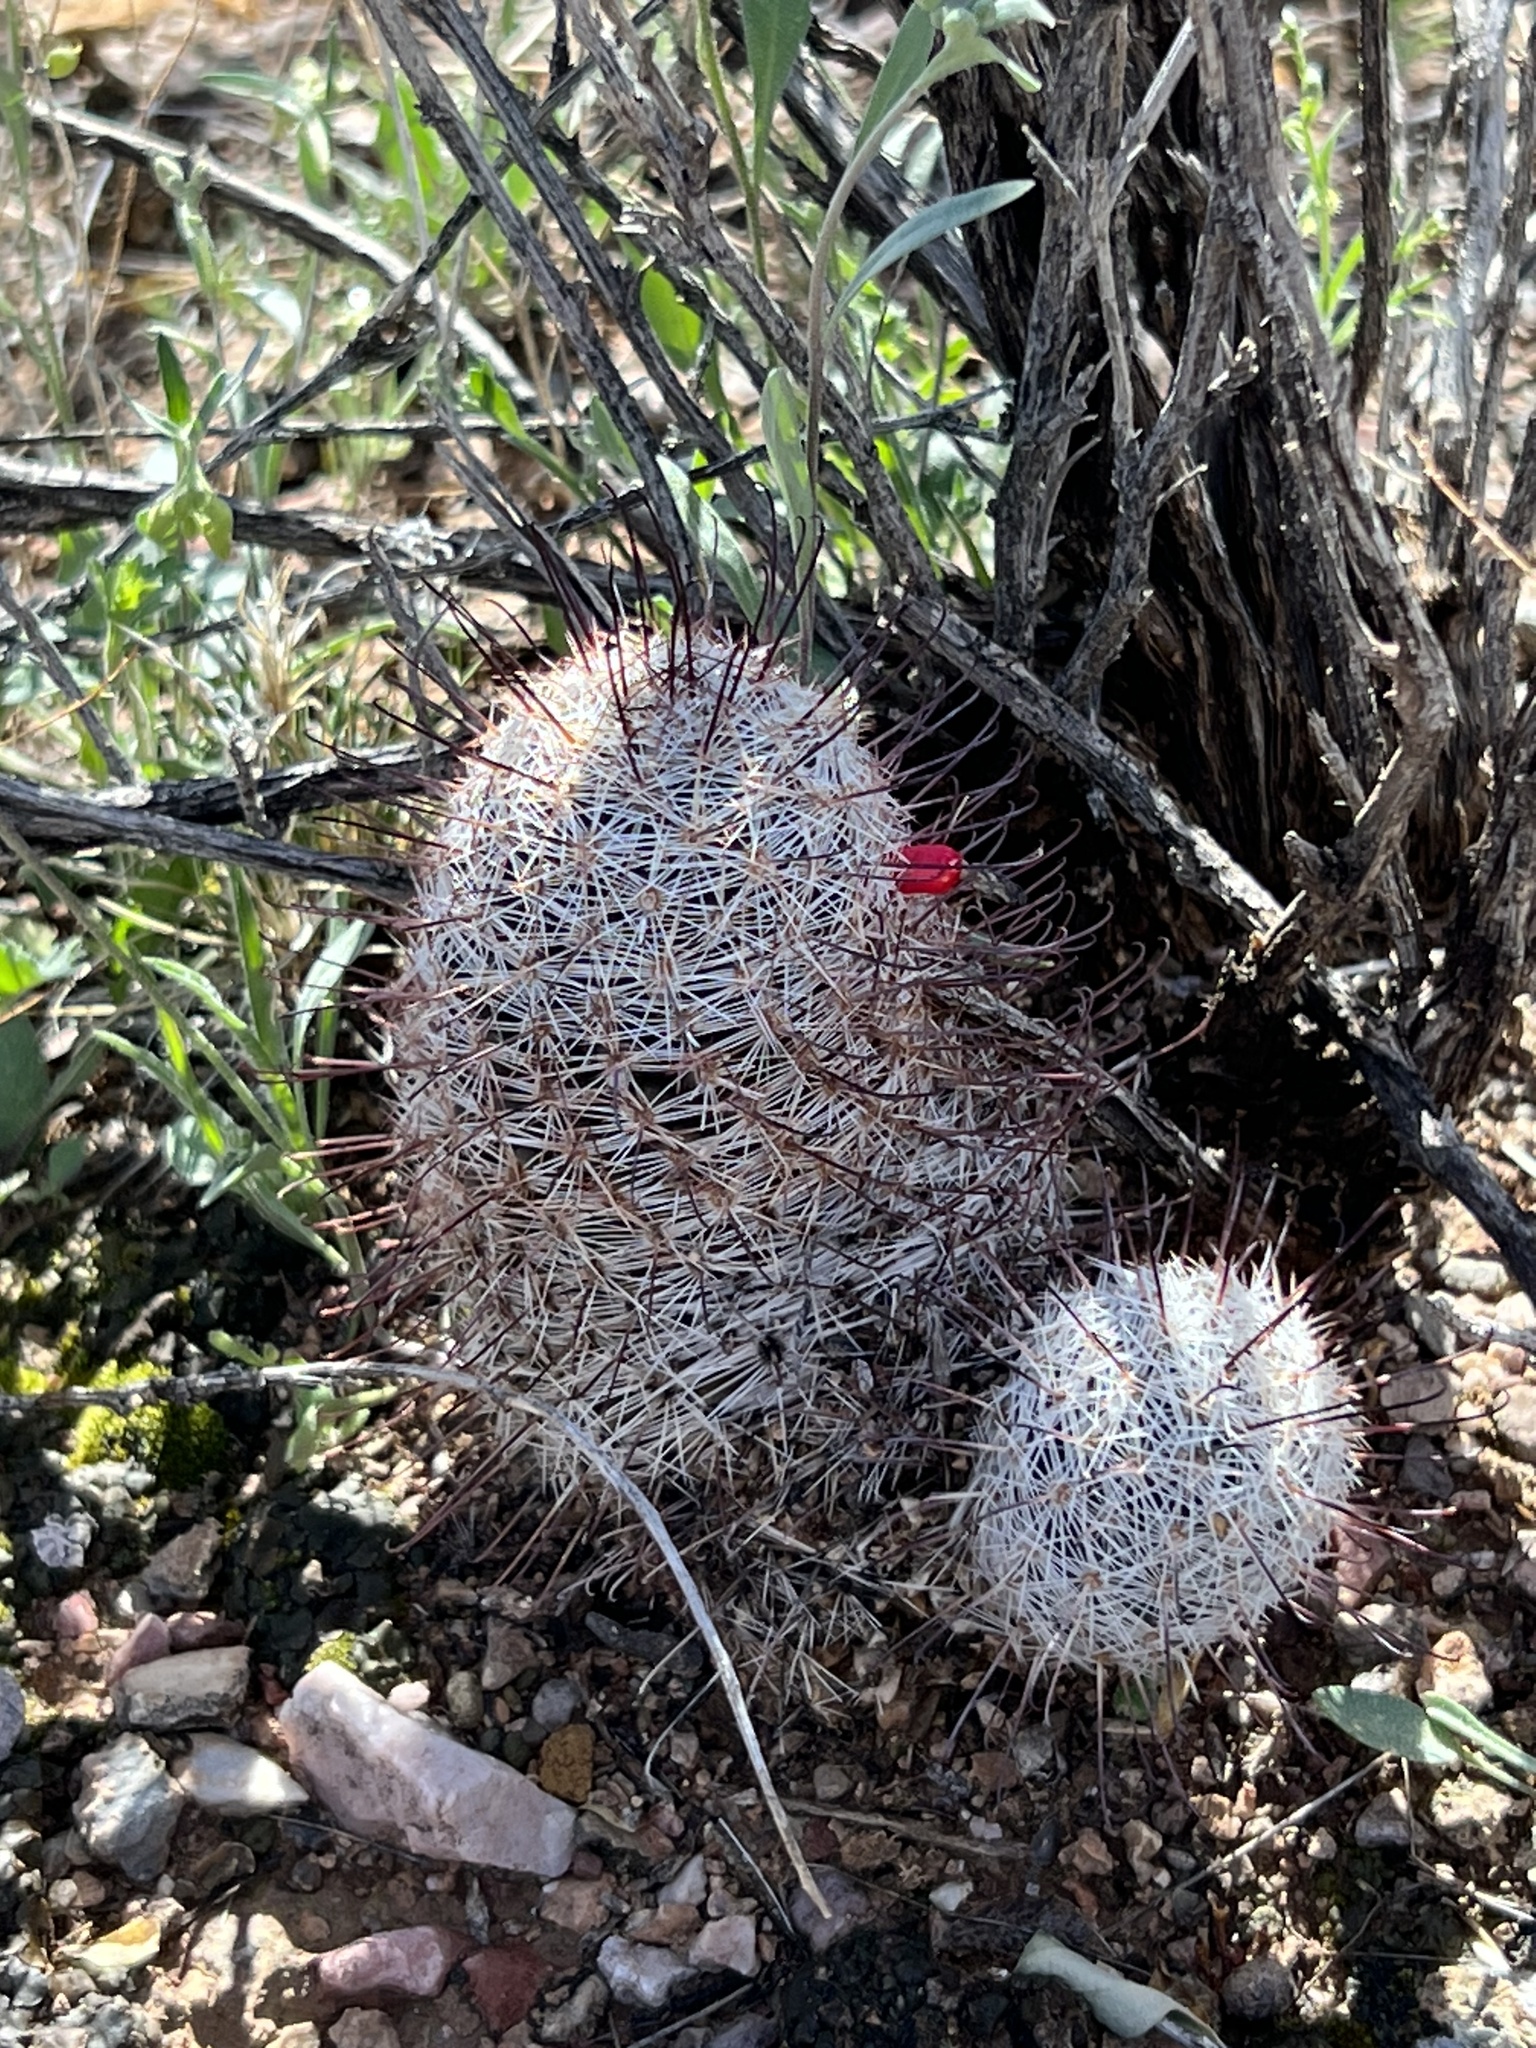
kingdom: Plantae
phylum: Tracheophyta
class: Magnoliopsida
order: Caryophyllales
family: Cactaceae
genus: Cochemiea
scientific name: Cochemiea grahamii
